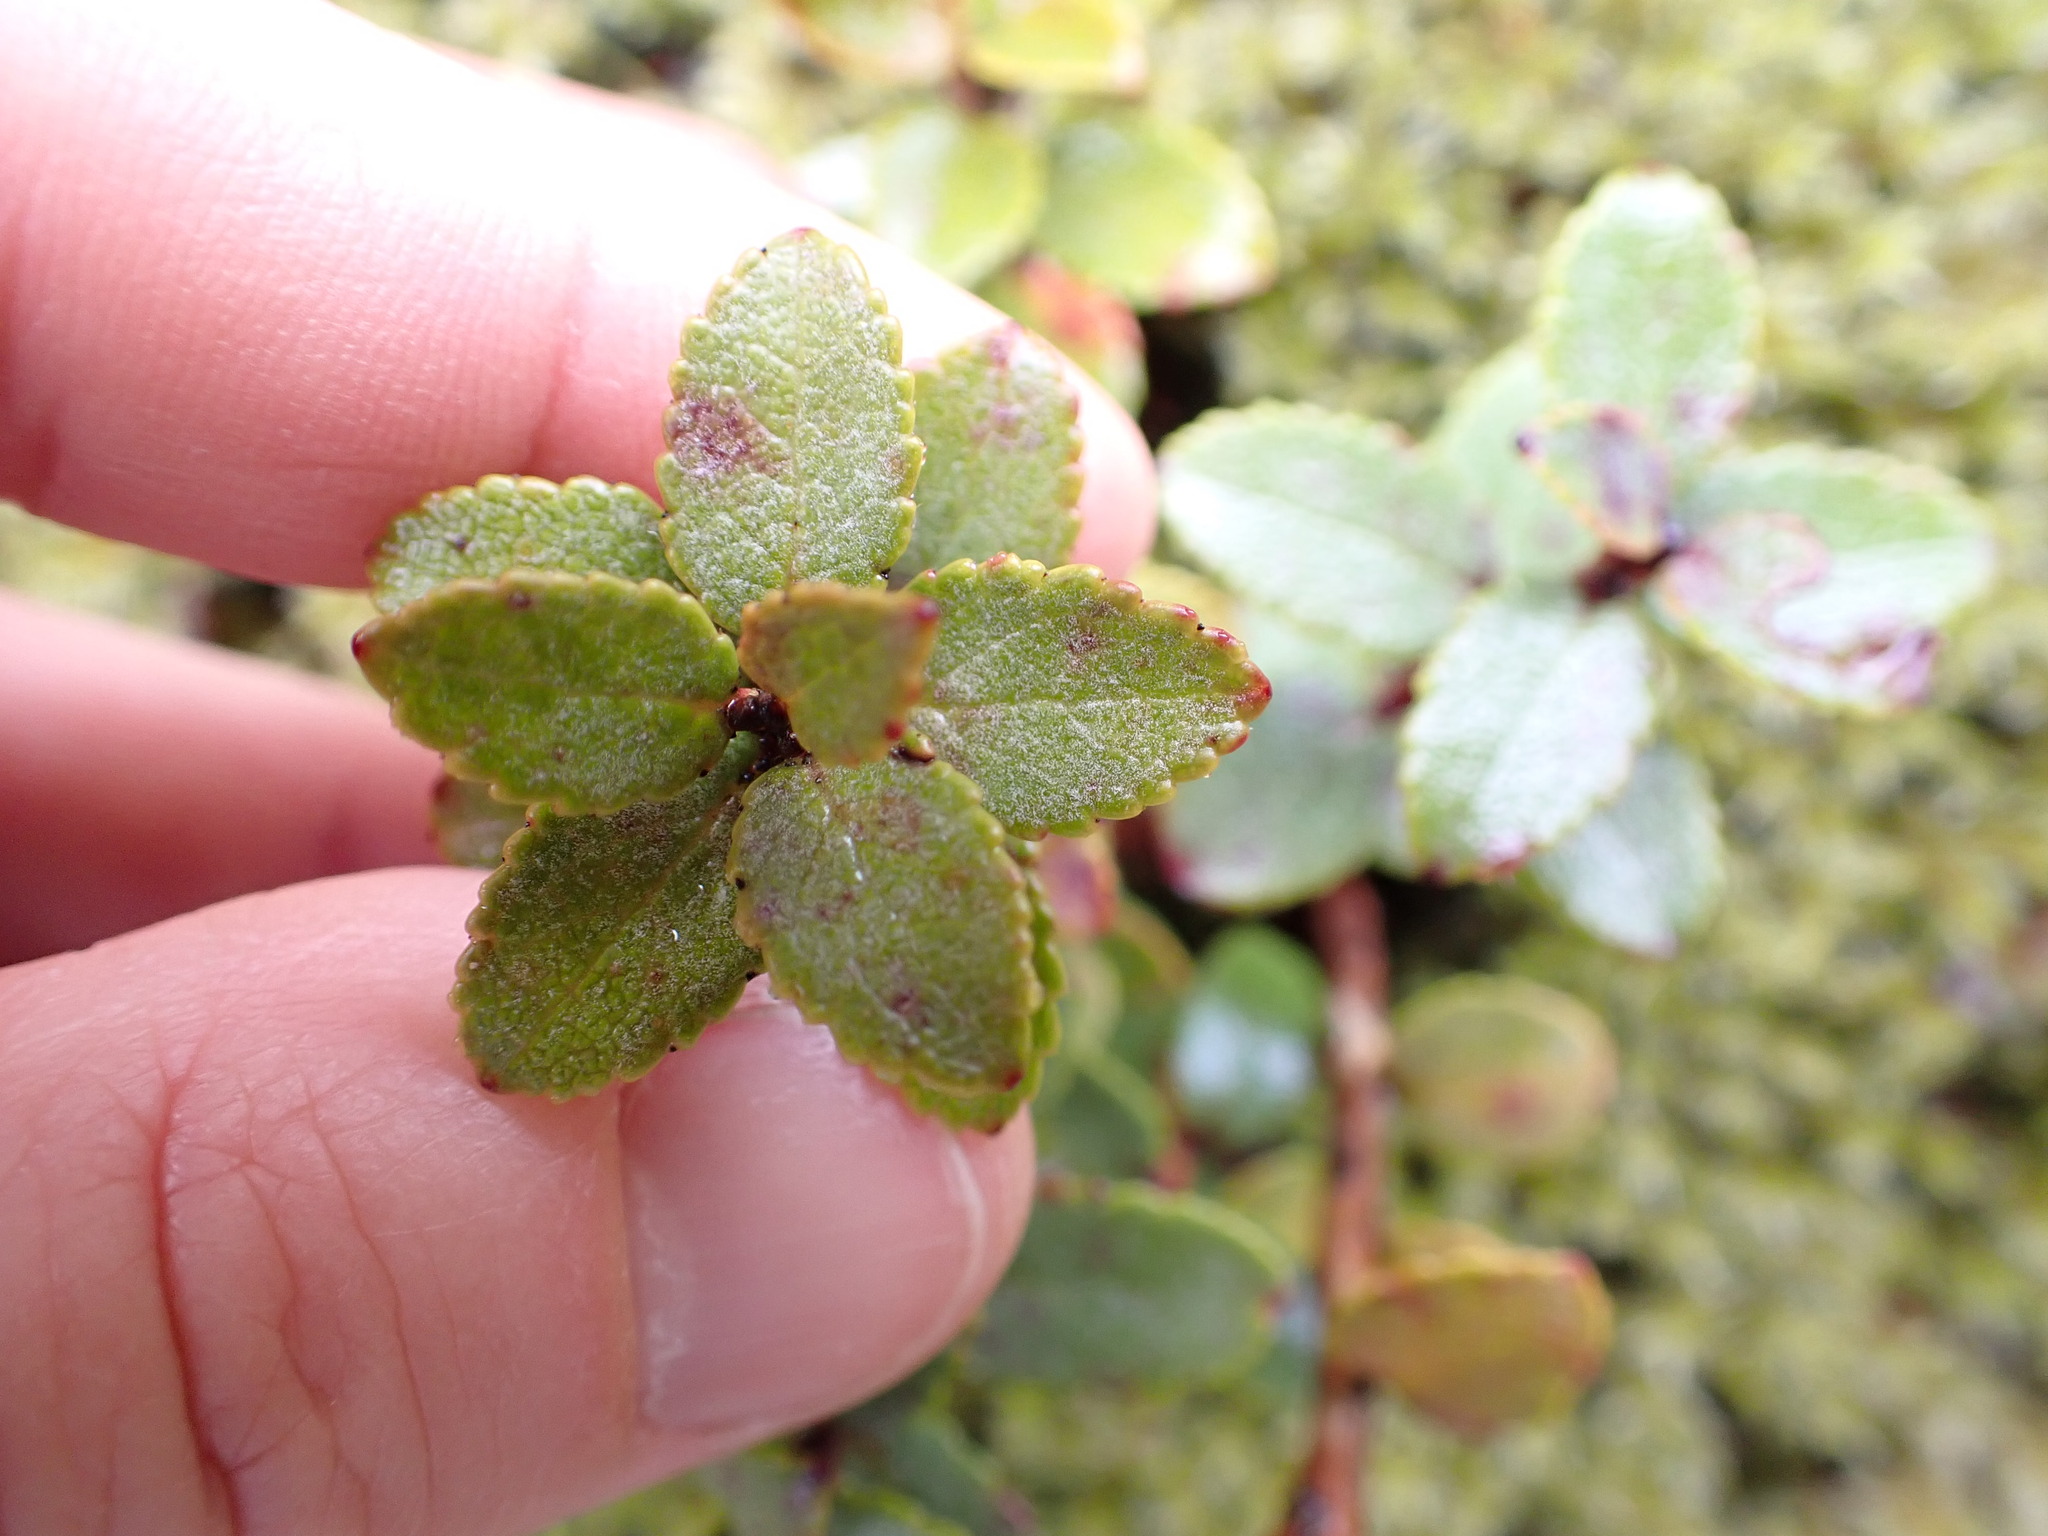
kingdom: Plantae
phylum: Tracheophyta
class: Magnoliopsida
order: Ericales
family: Ericaceae
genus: Gaultheria
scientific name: Gaultheria crassa
